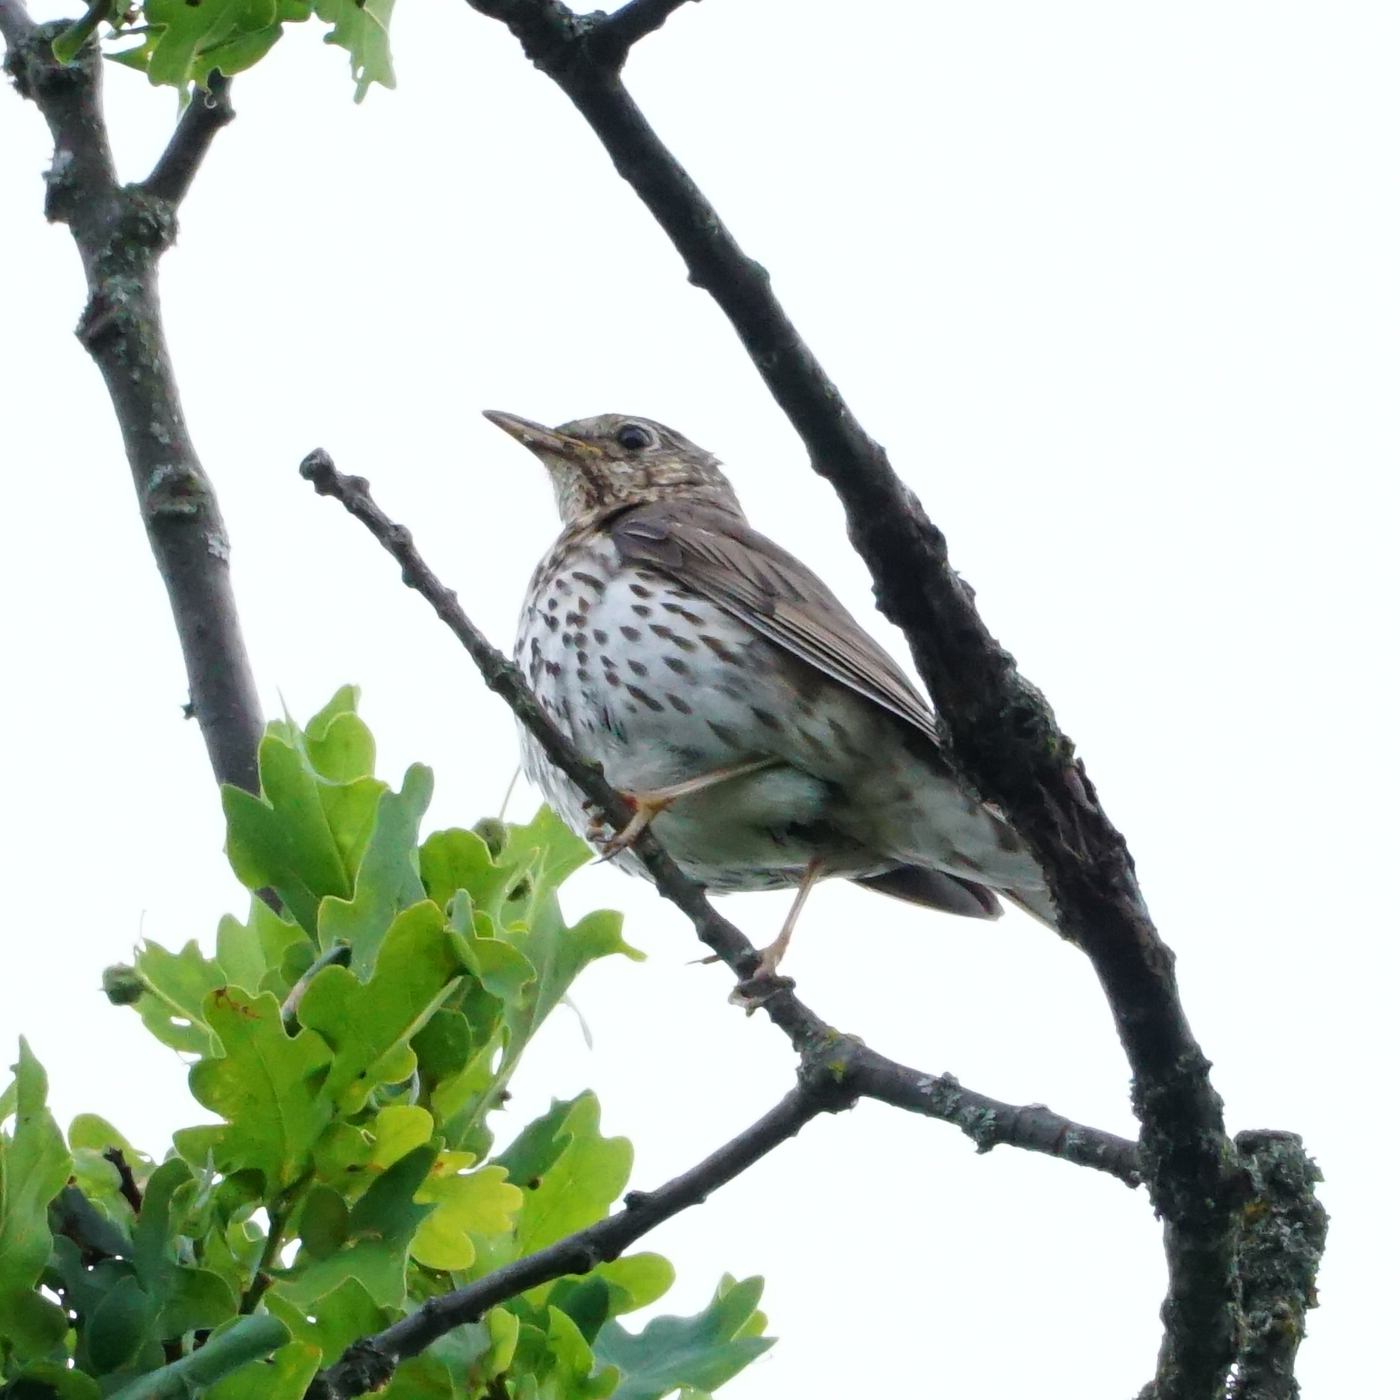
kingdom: Animalia
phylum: Chordata
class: Aves
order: Passeriformes
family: Turdidae
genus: Turdus
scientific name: Turdus philomelos
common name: Song thrush
